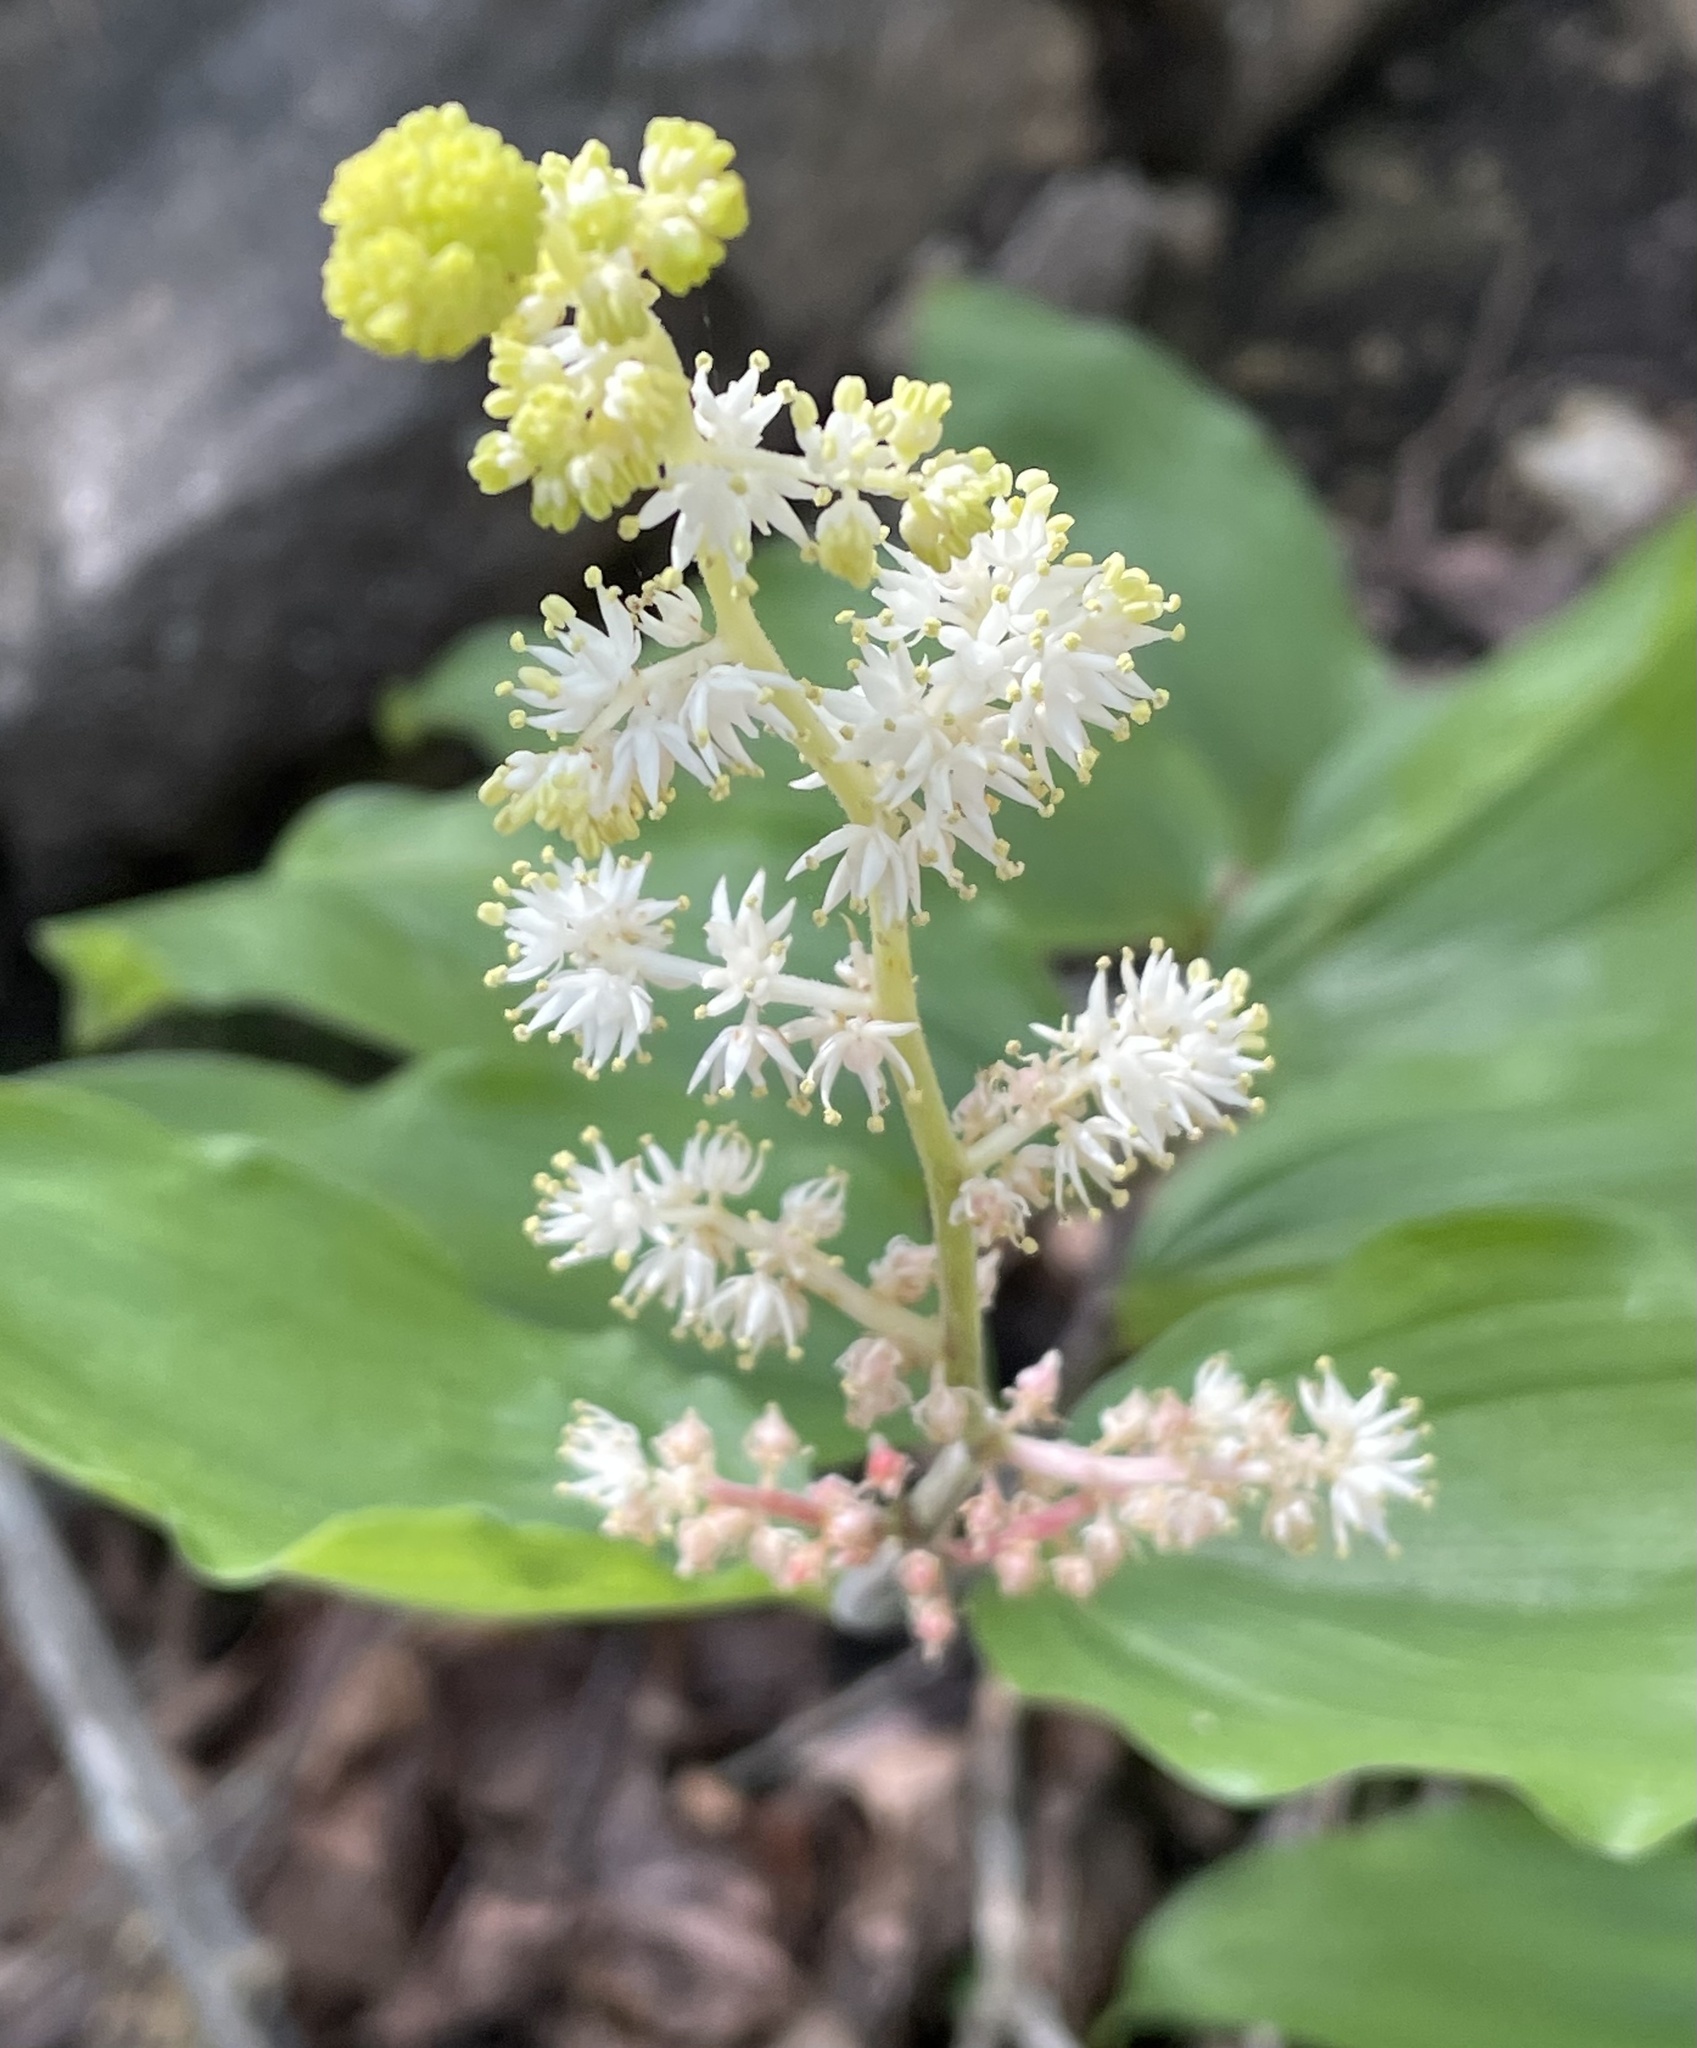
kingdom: Plantae
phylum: Tracheophyta
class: Liliopsida
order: Asparagales
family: Asparagaceae
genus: Maianthemum
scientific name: Maianthemum racemosum
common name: False spikenard
